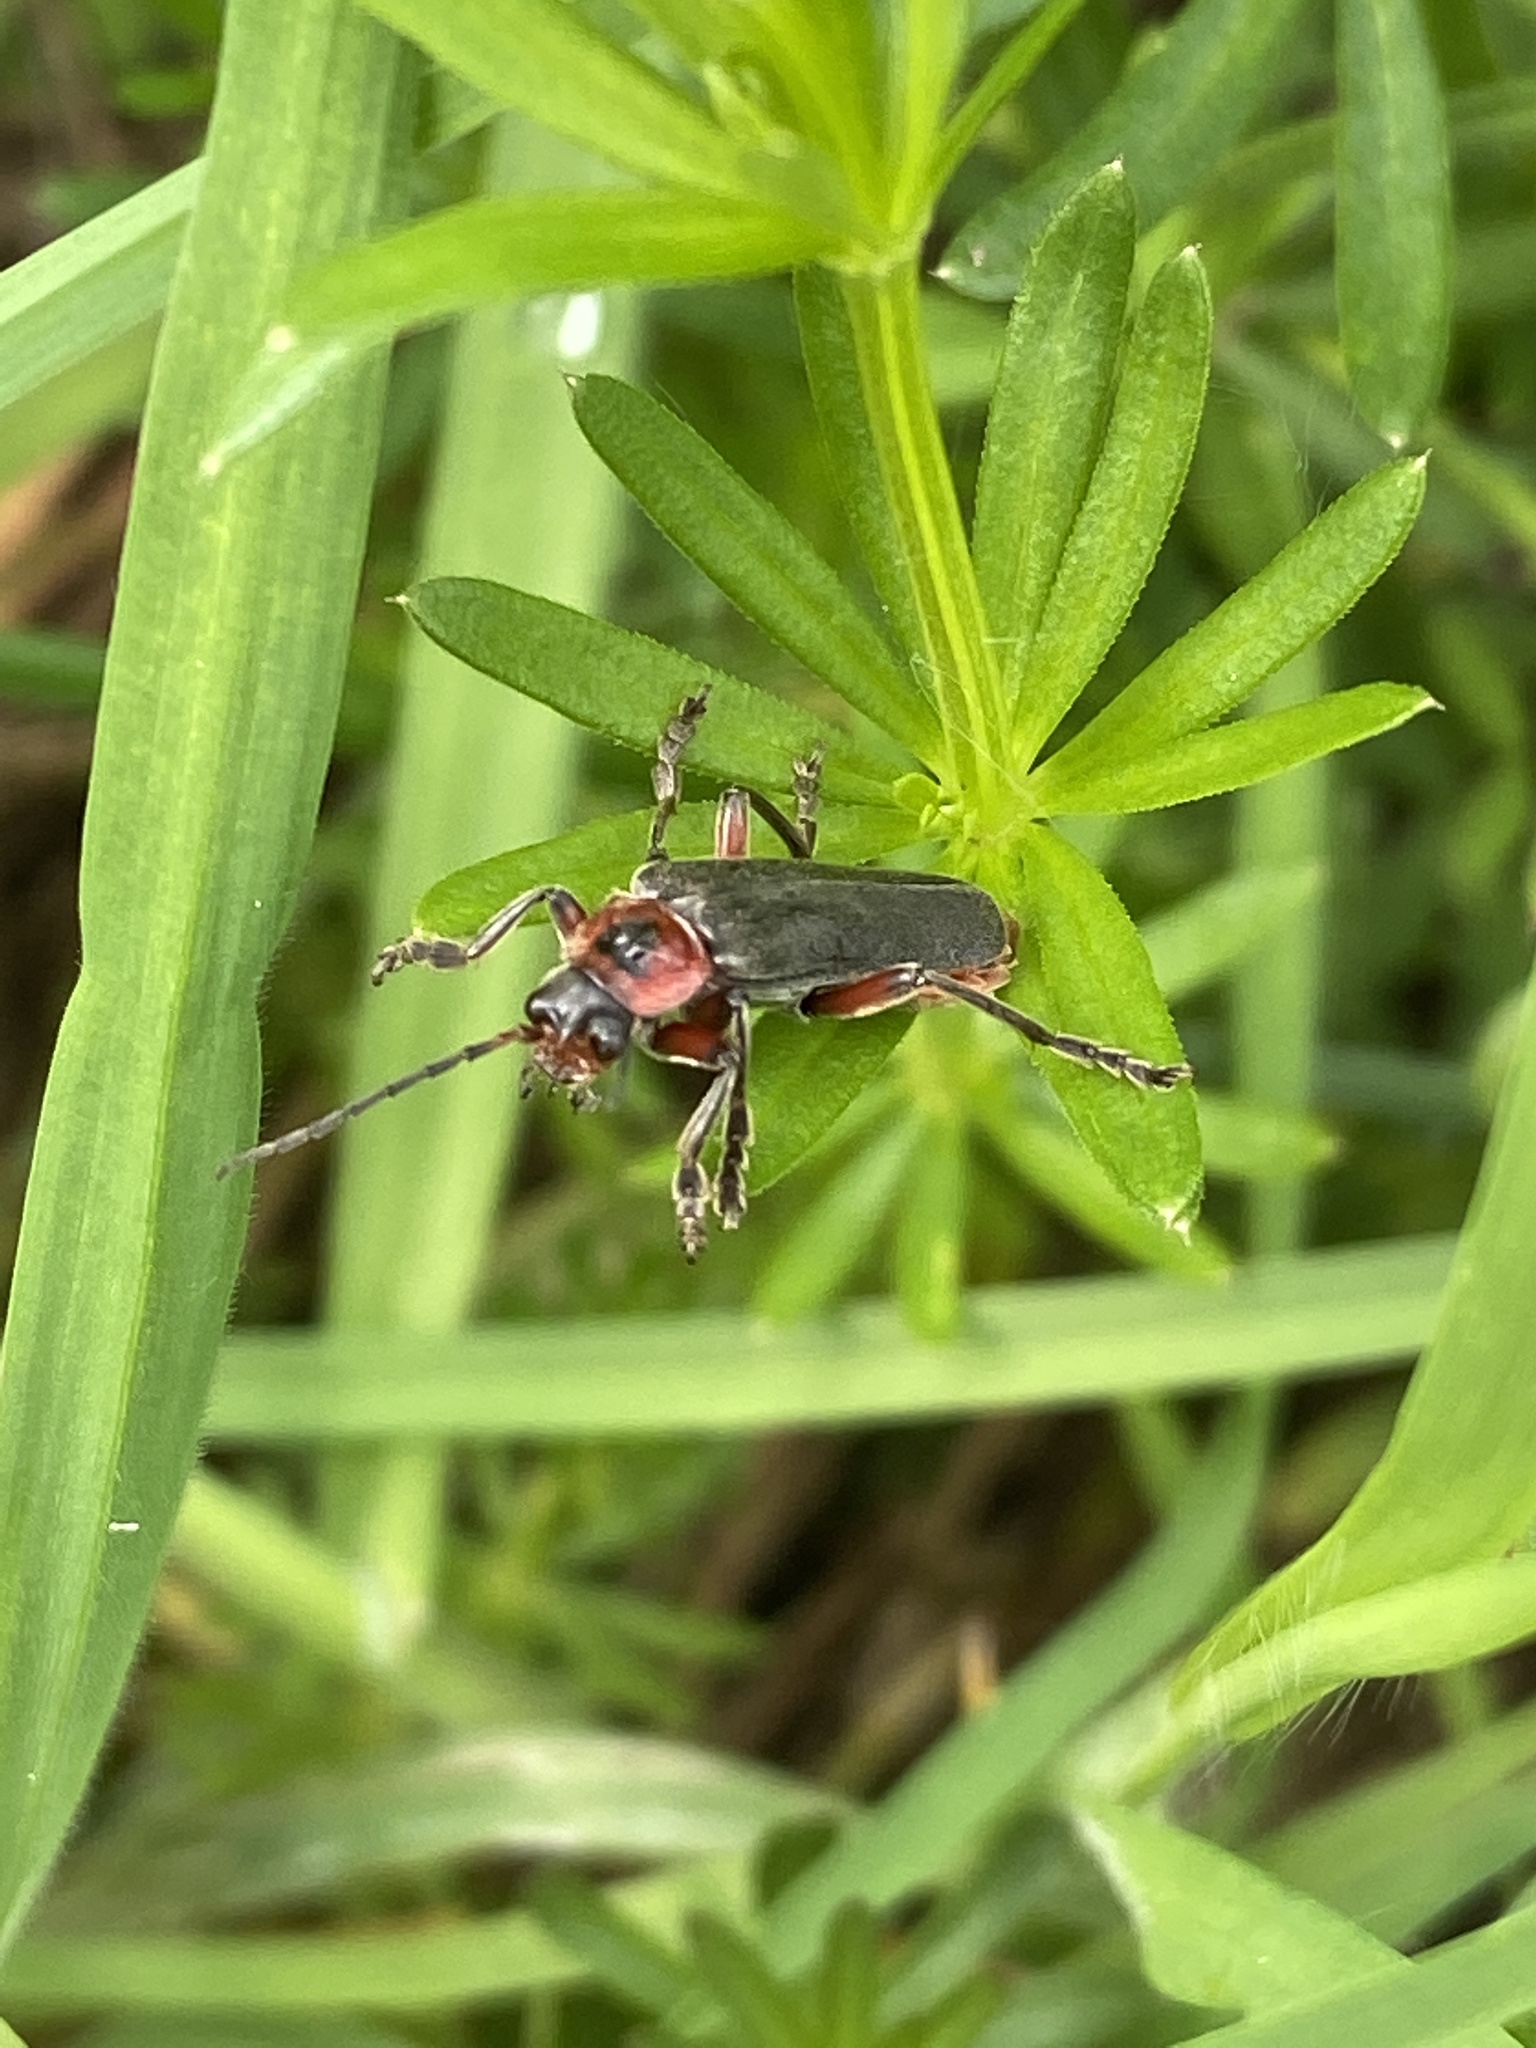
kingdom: Animalia
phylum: Arthropoda
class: Insecta
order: Coleoptera
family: Cantharidae
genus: Cantharis
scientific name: Cantharis rustica
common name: Soldier beetle
